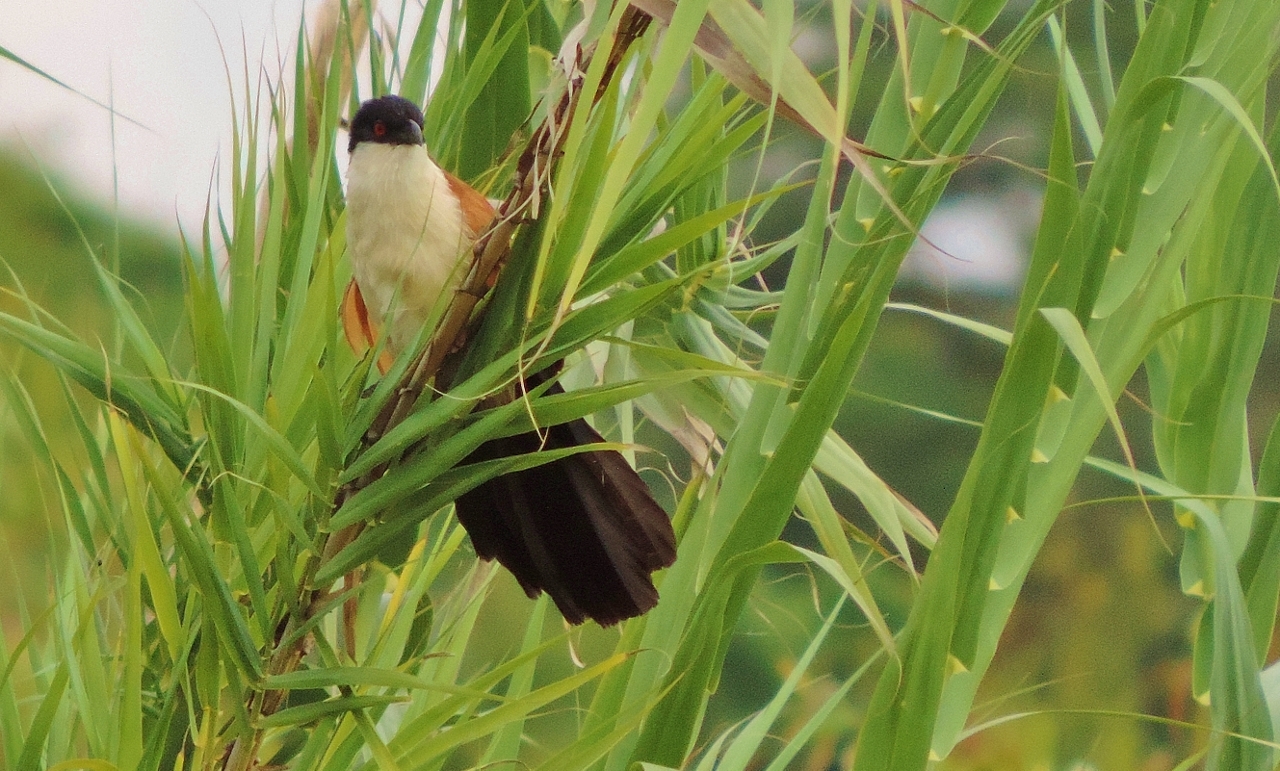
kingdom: Animalia
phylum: Chordata
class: Aves
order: Cuculiformes
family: Cuculidae
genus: Centropus
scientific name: Centropus senegalensis
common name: Senegal coucal
